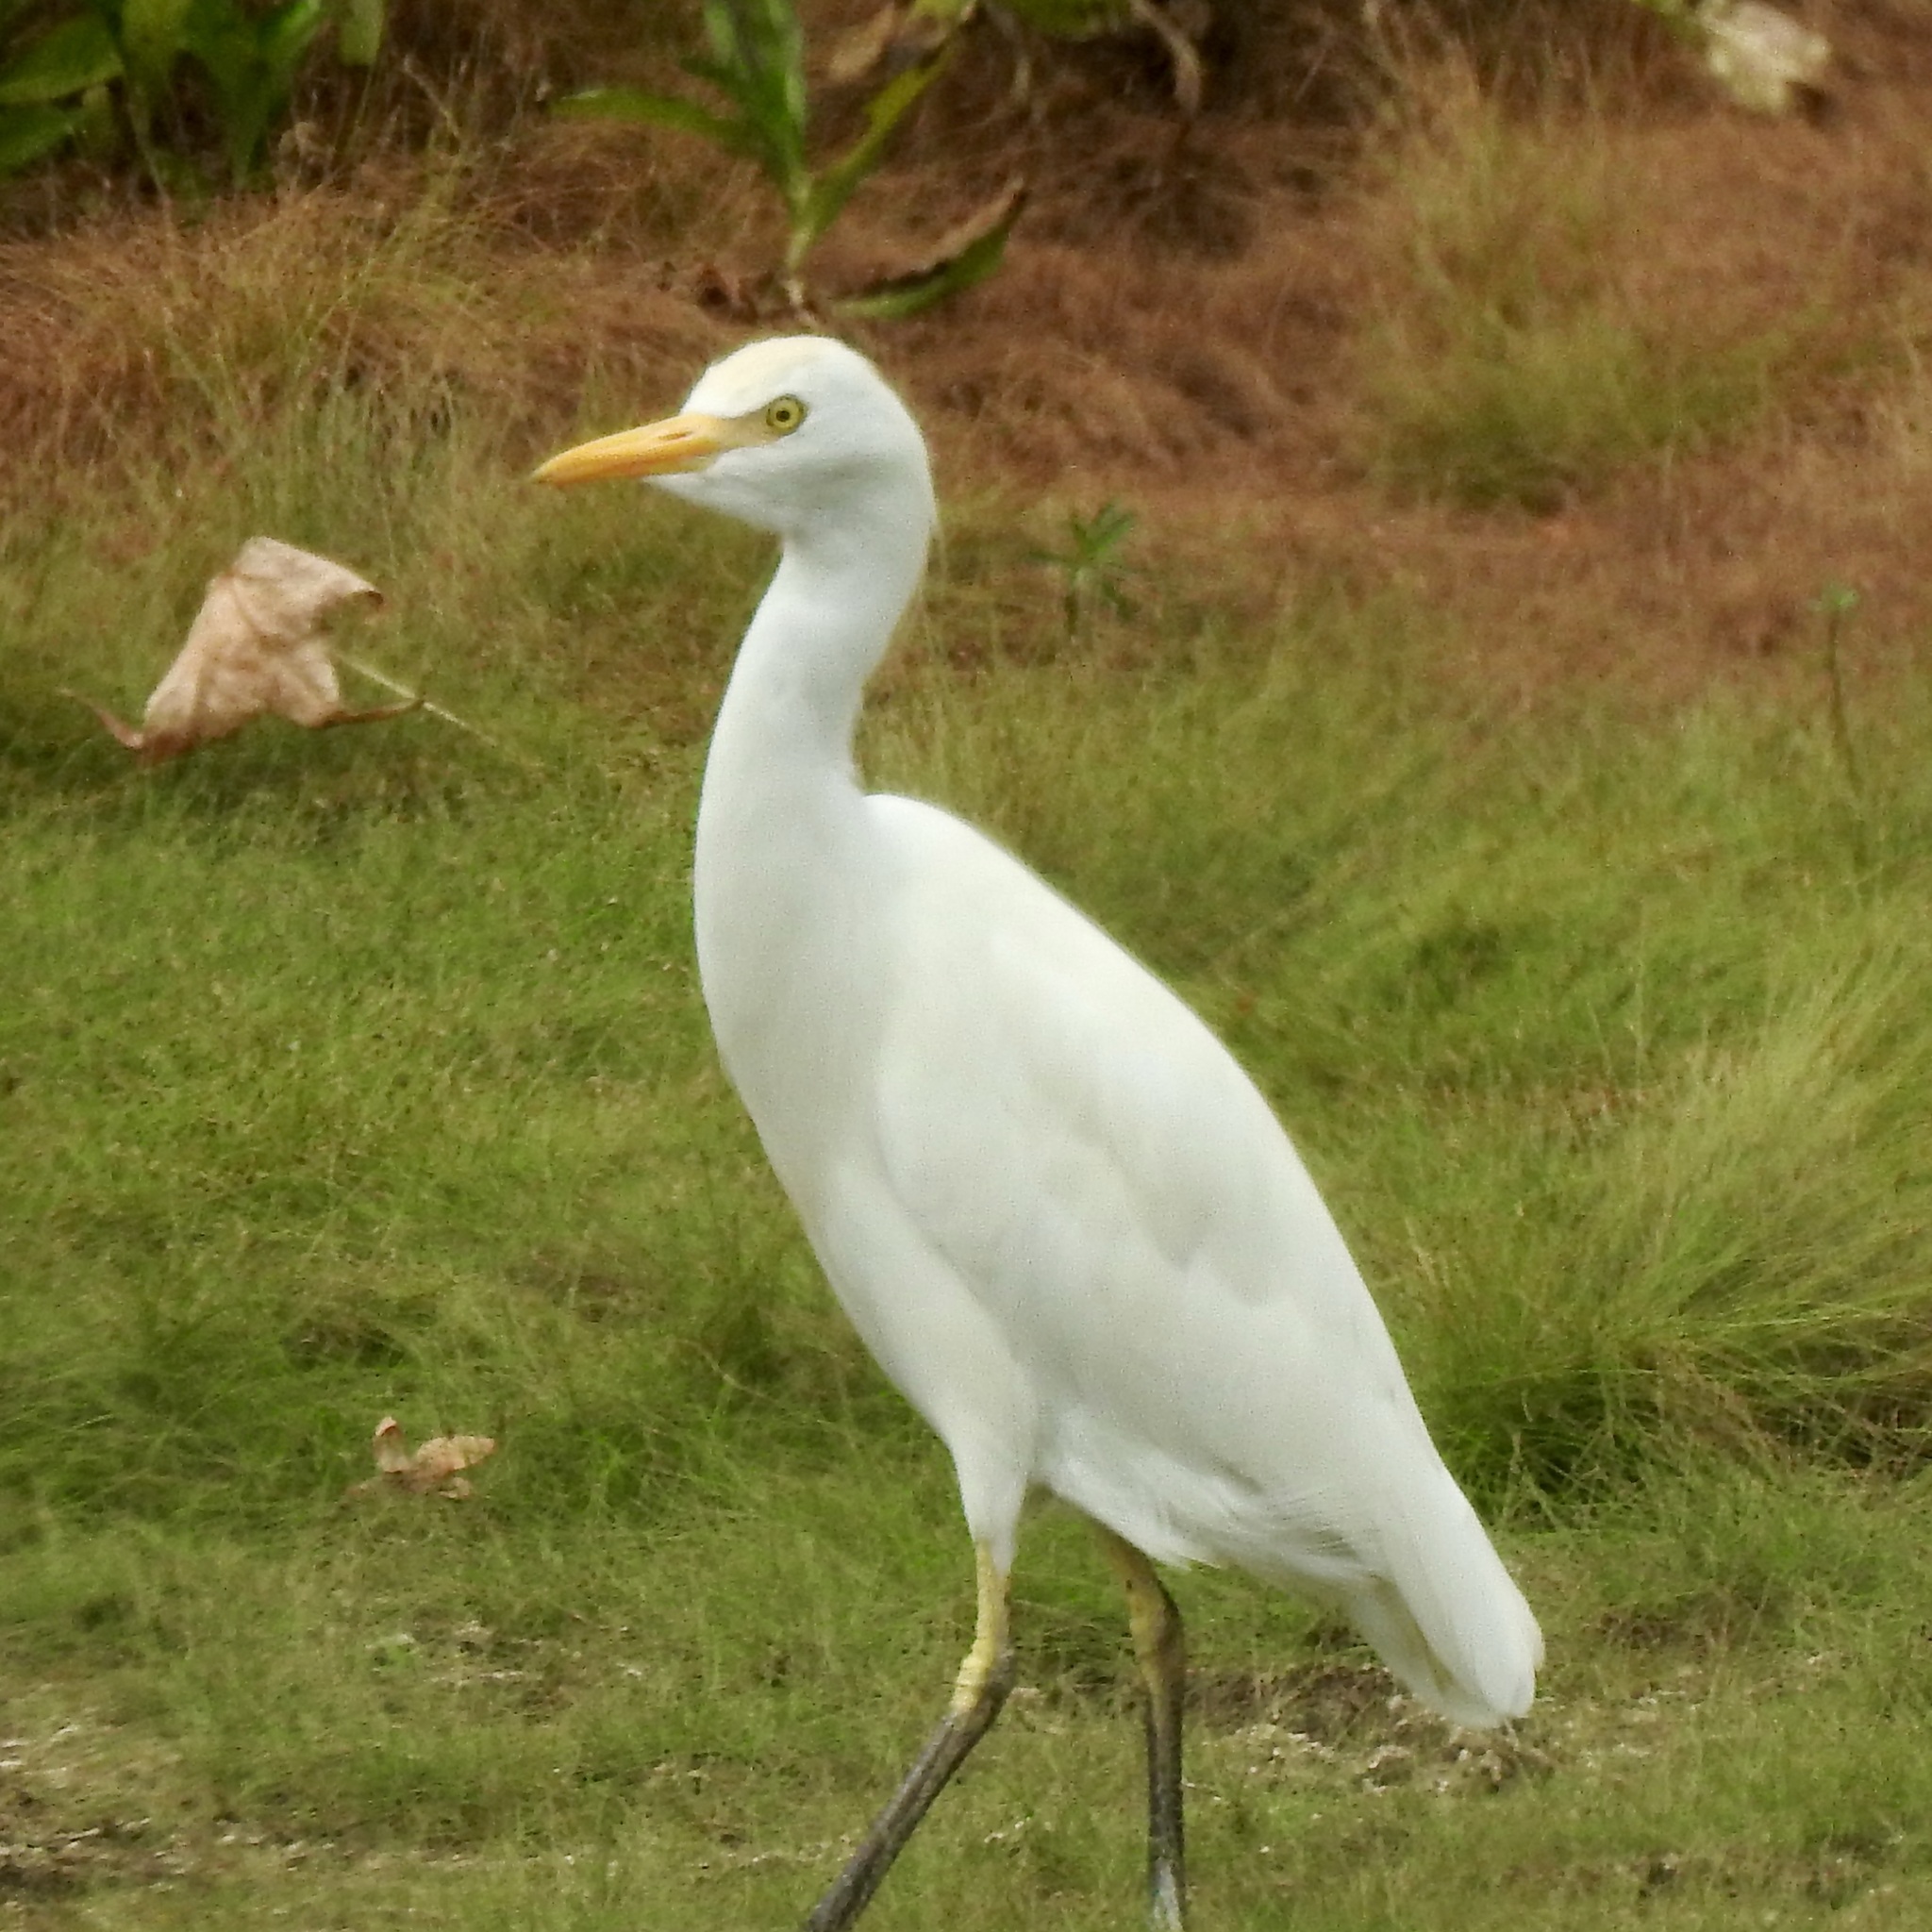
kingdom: Animalia
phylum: Chordata
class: Aves
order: Pelecaniformes
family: Ardeidae
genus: Bubulcus
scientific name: Bubulcus ibis
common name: Cattle egret
